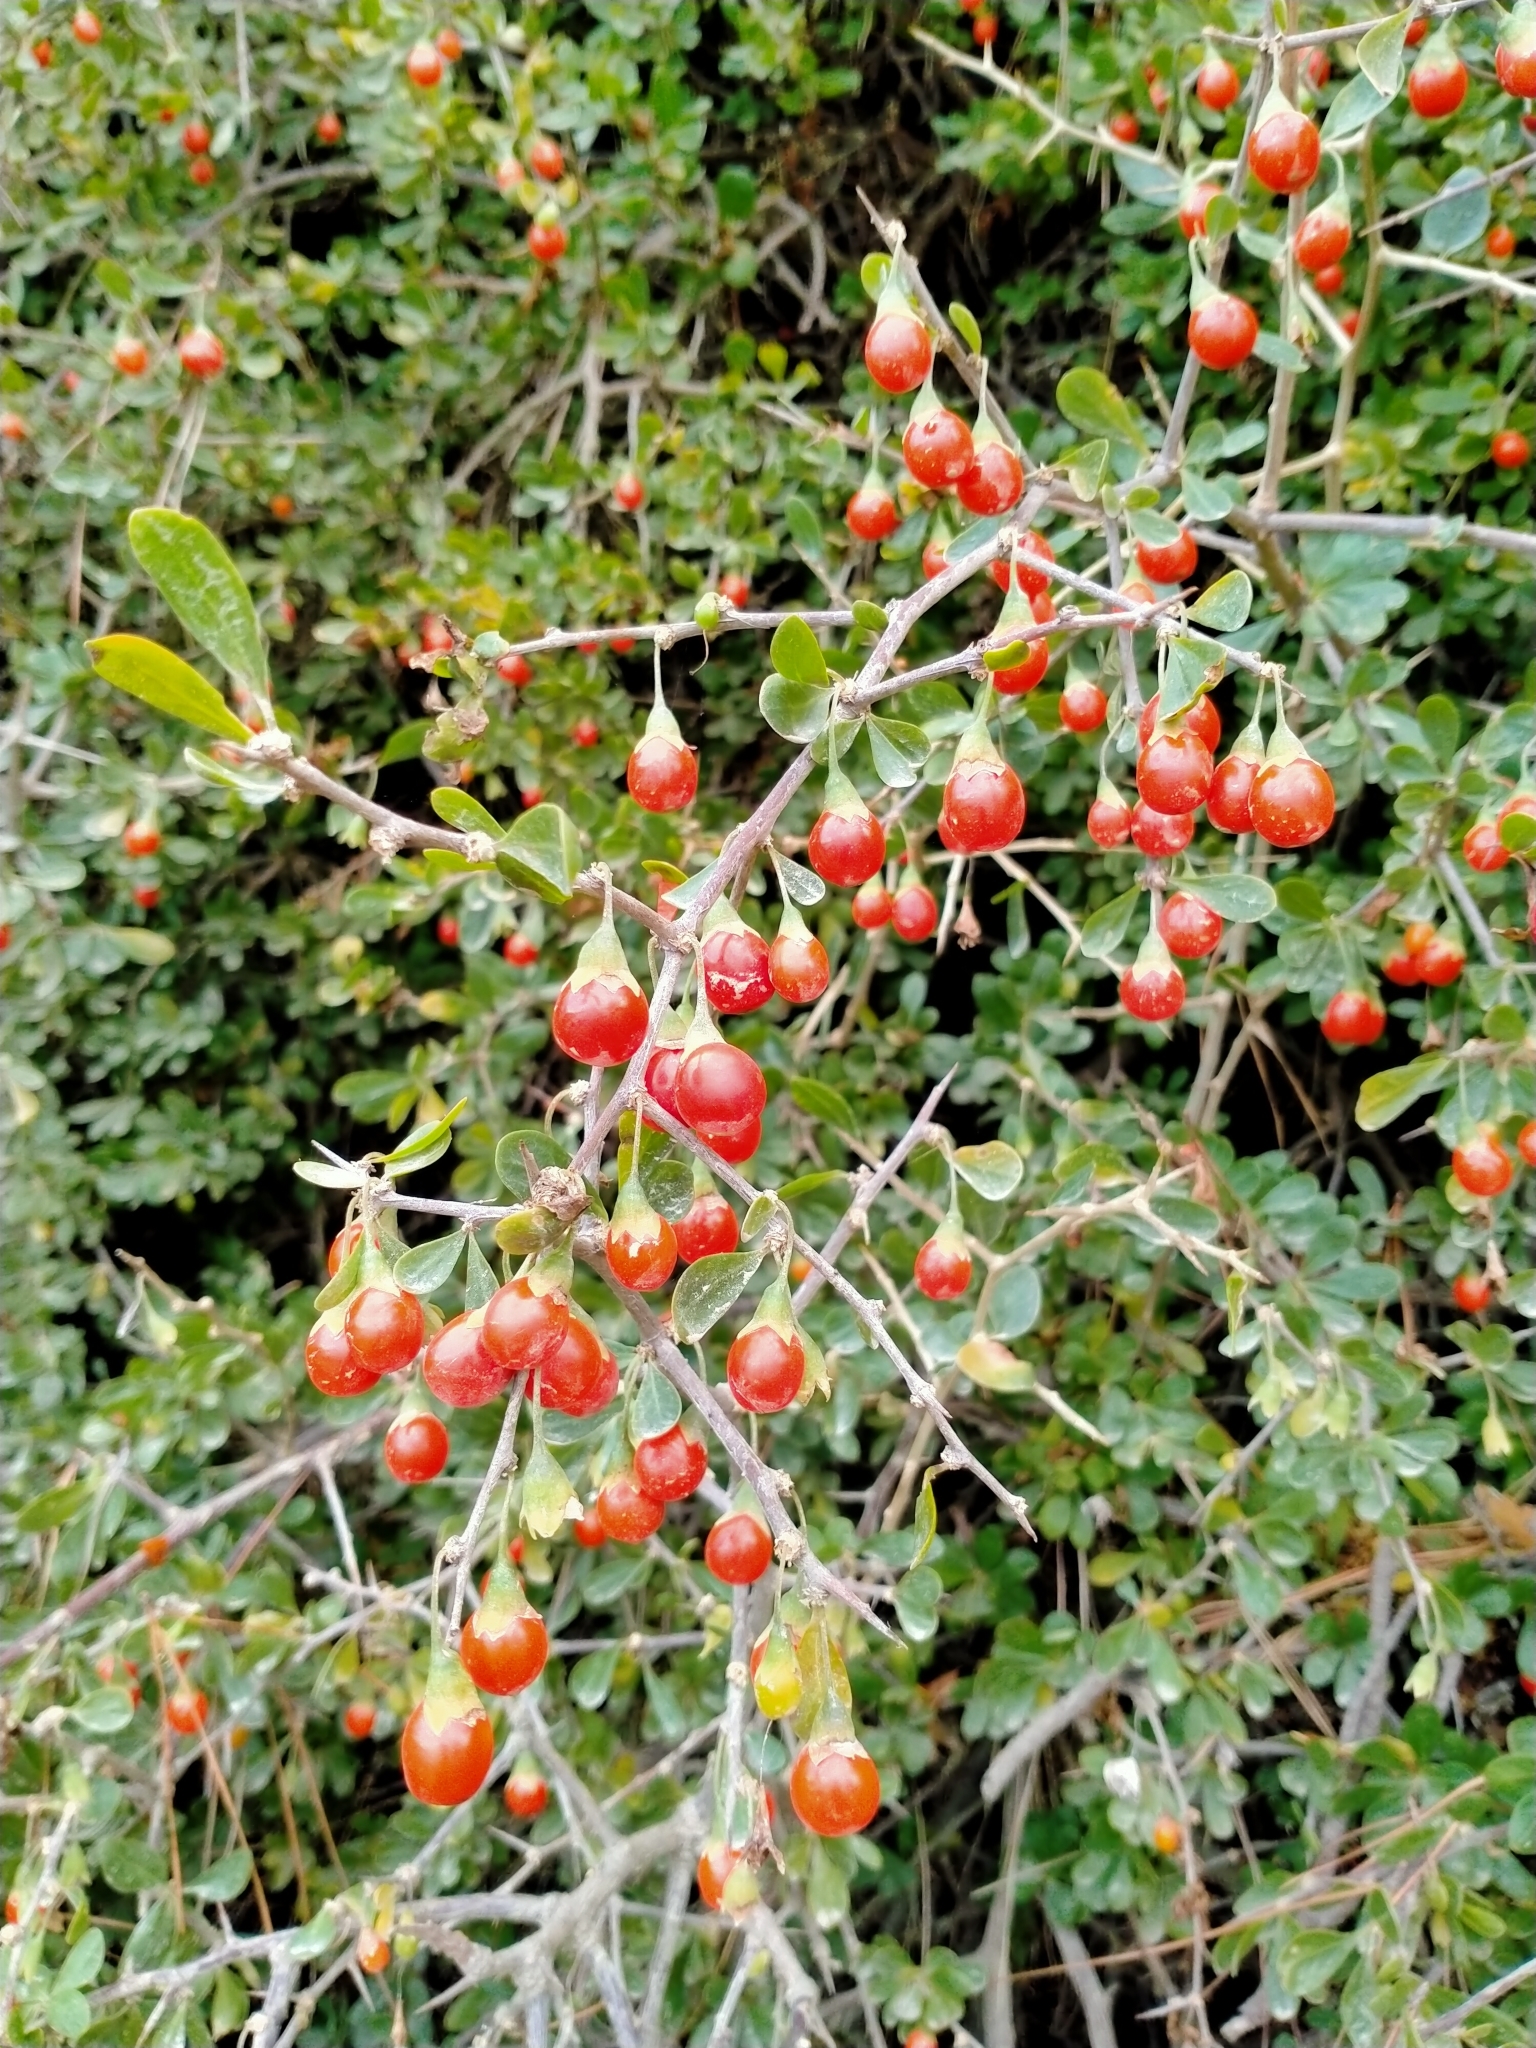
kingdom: Plantae
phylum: Tracheophyta
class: Magnoliopsida
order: Solanales
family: Solanaceae
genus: Lycium
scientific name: Lycium ferocissimum
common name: African boxthorn
